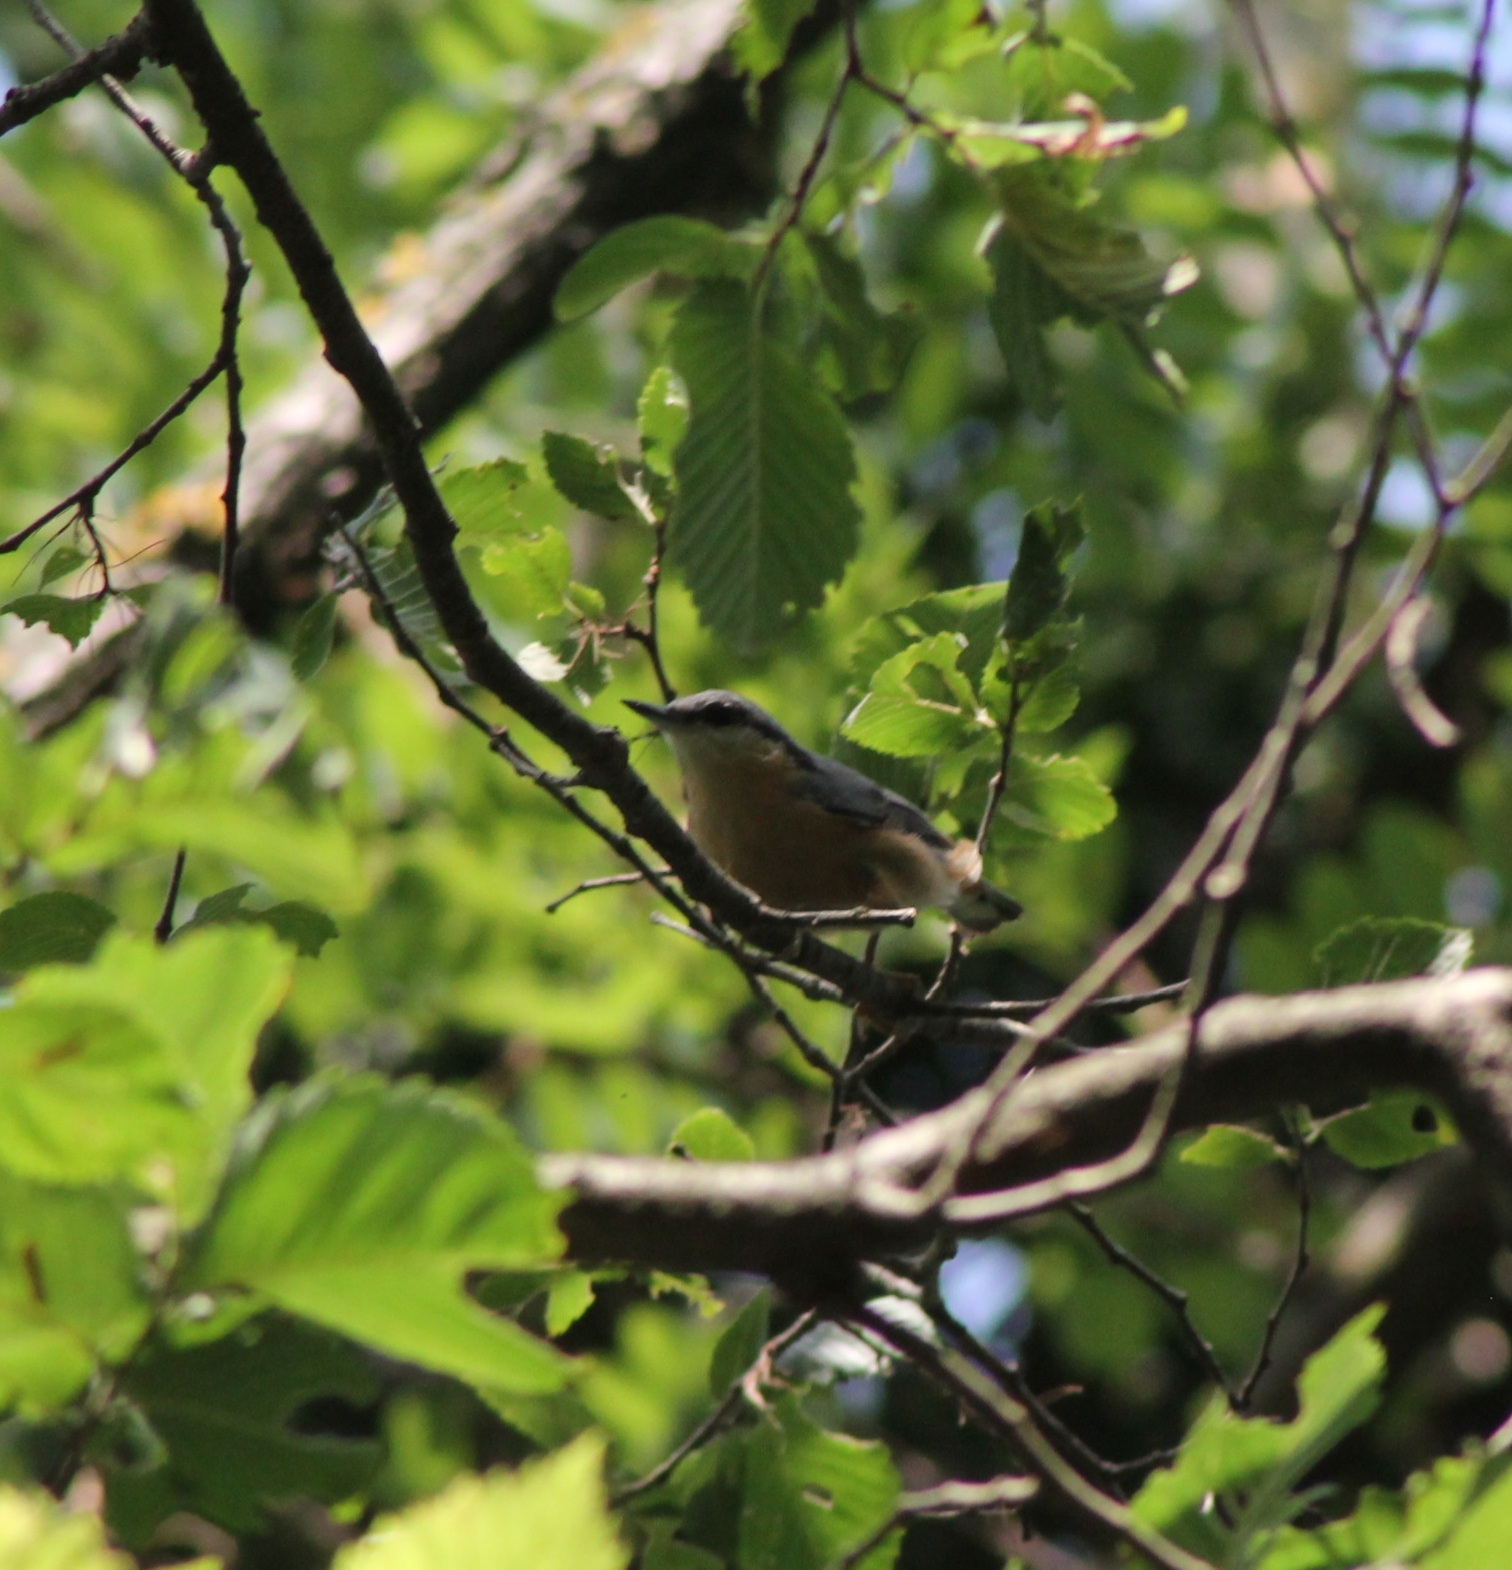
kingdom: Animalia
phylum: Chordata
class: Aves
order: Passeriformes
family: Sittidae
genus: Sitta
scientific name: Sitta europaea
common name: Eurasian nuthatch
